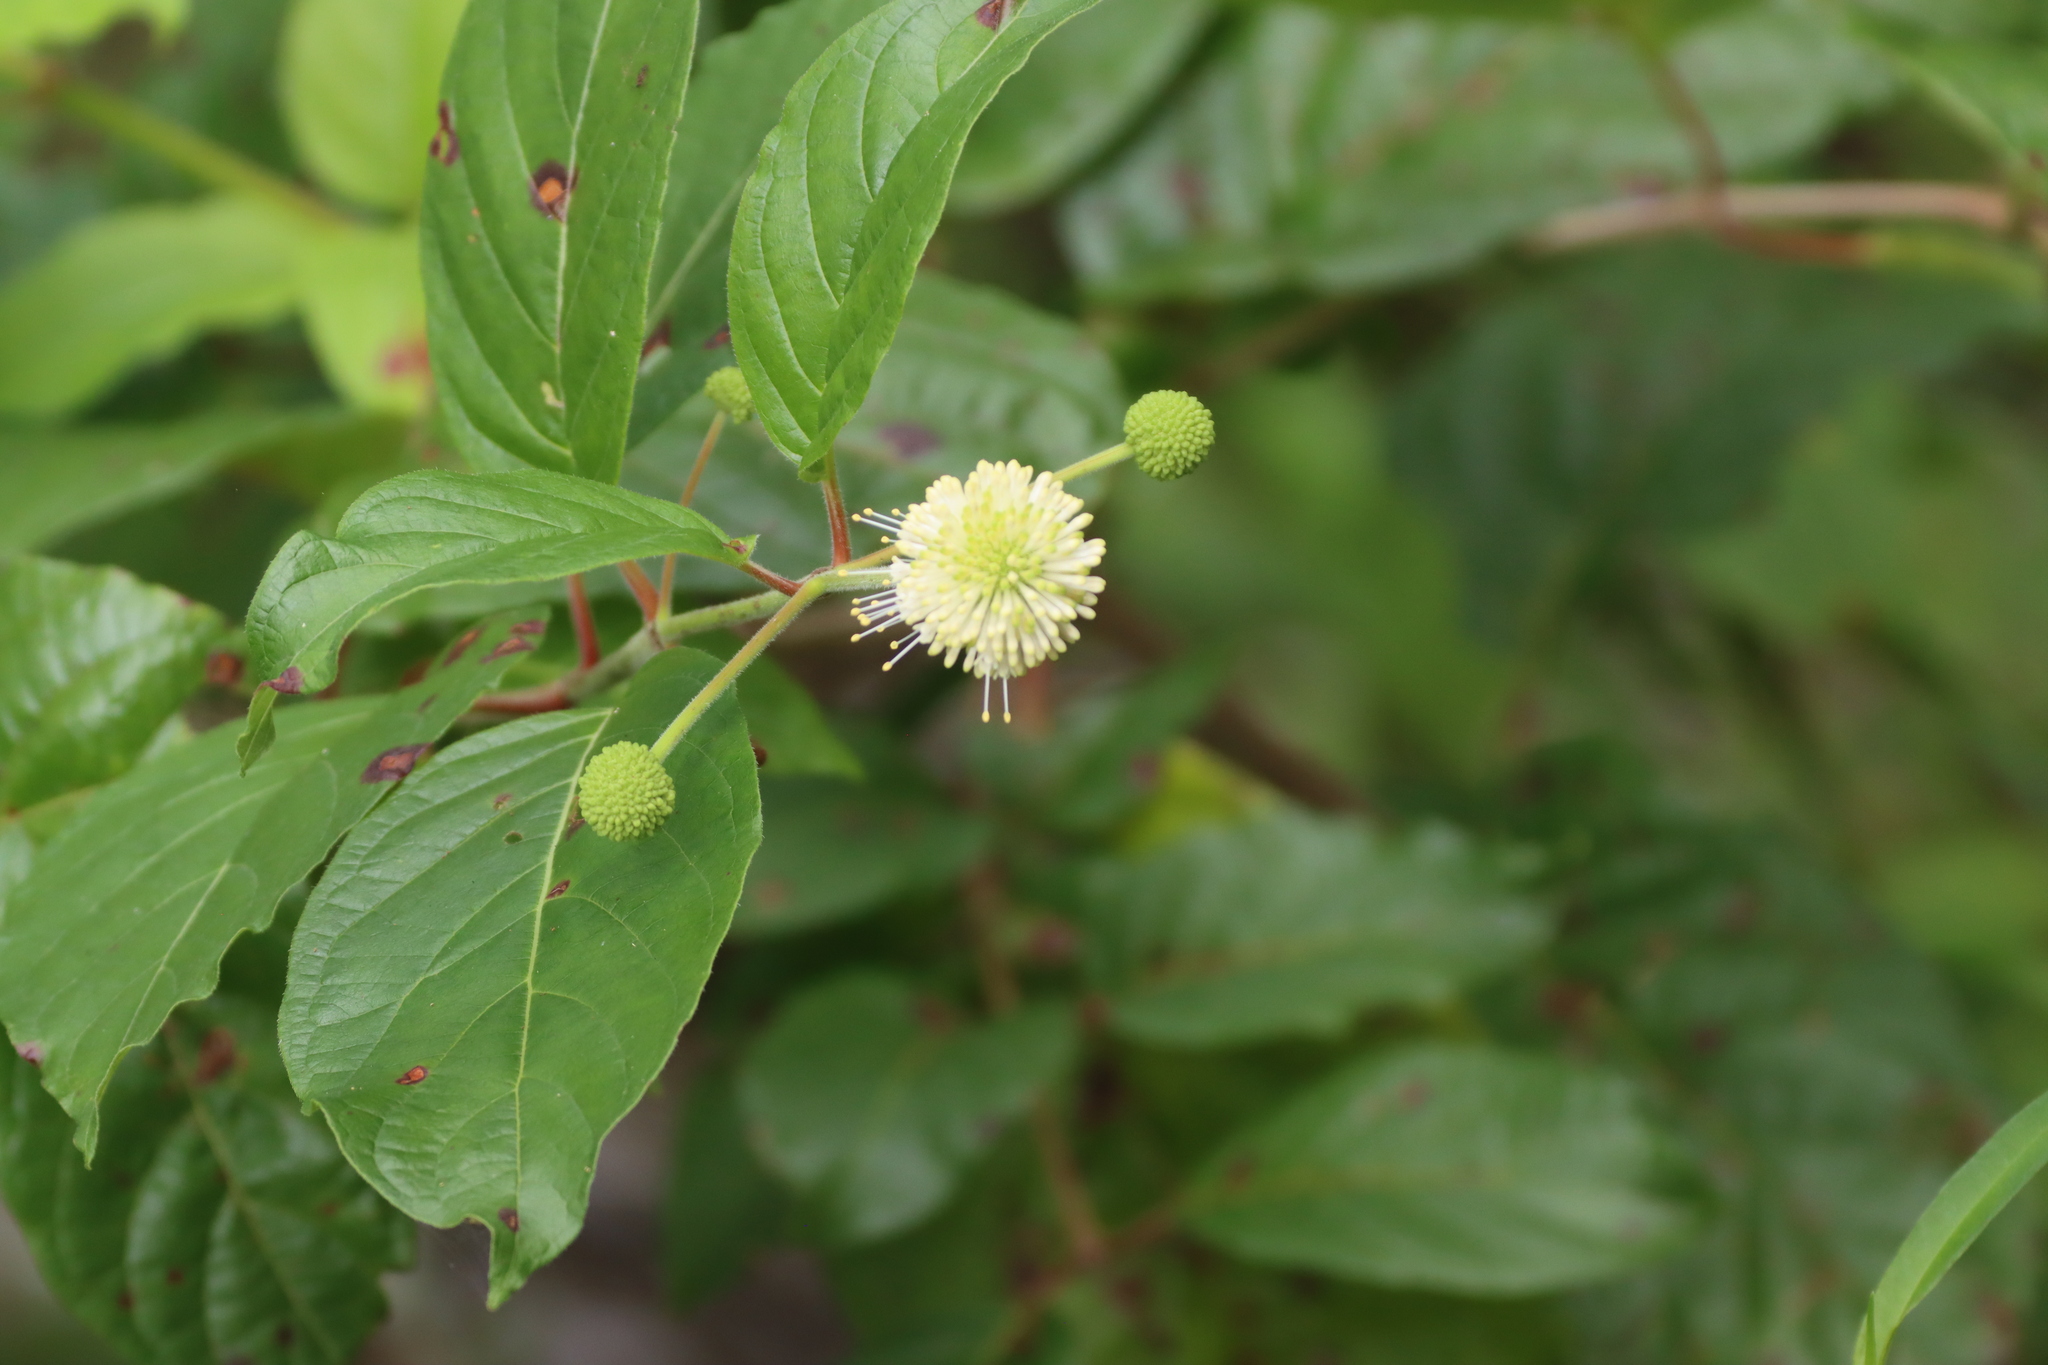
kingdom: Plantae
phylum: Tracheophyta
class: Magnoliopsida
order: Gentianales
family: Rubiaceae
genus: Cephalanthus
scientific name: Cephalanthus occidentalis
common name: Button-willow
